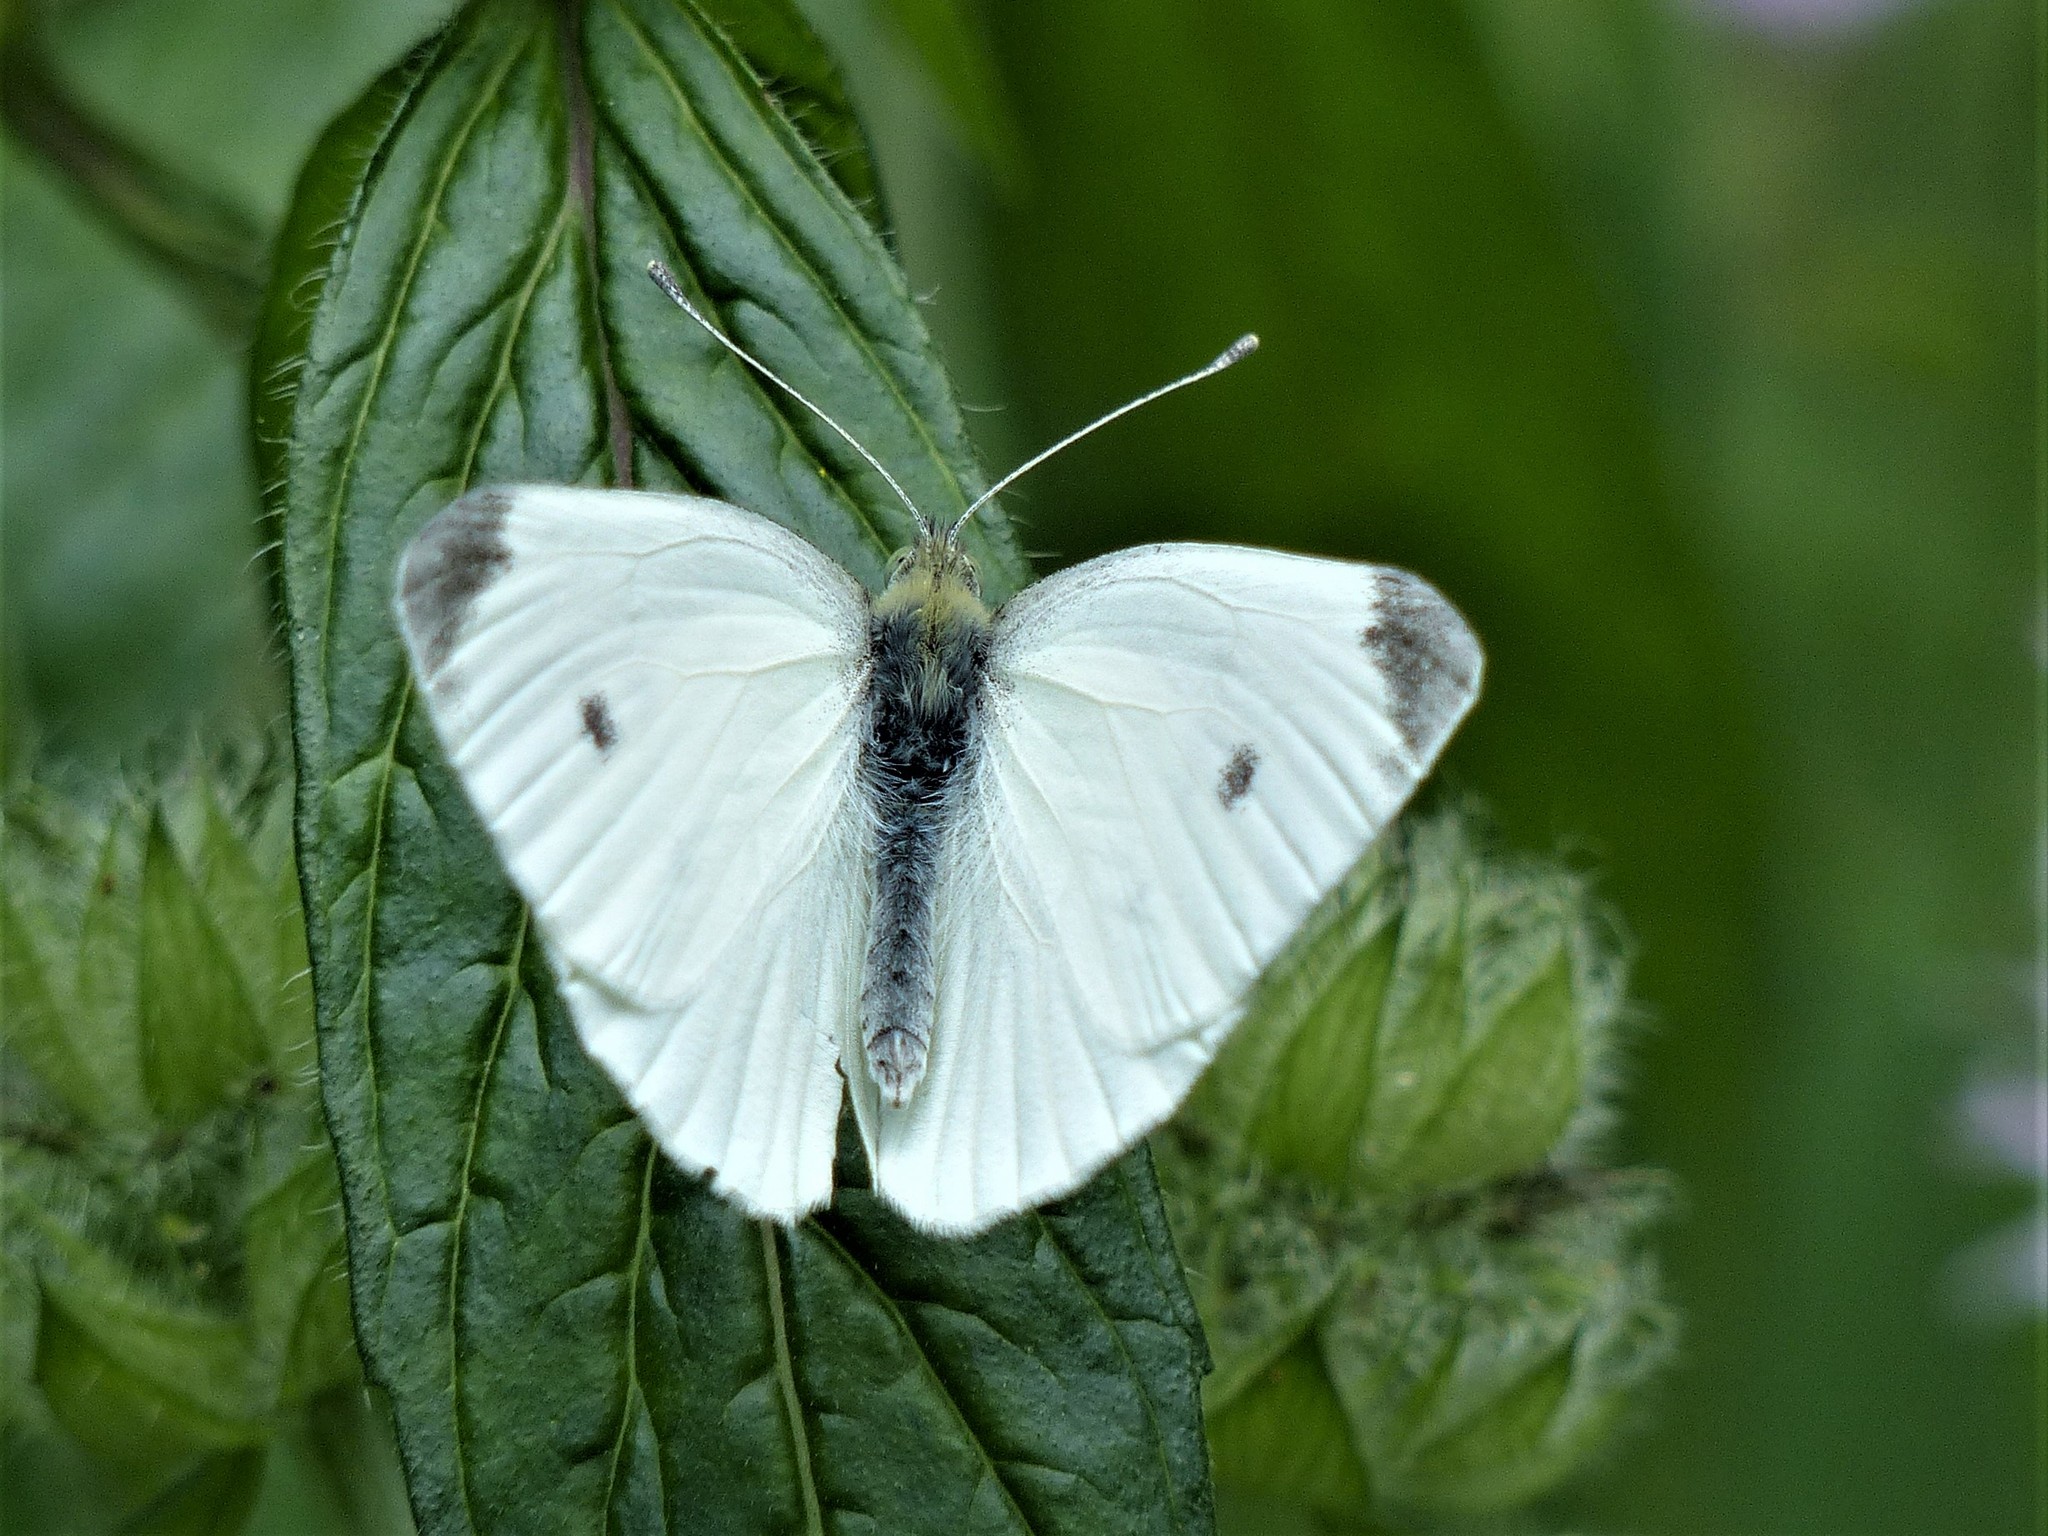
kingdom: Animalia
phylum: Arthropoda
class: Insecta
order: Lepidoptera
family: Pieridae
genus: Pieris
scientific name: Pieris rapae
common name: Small white
